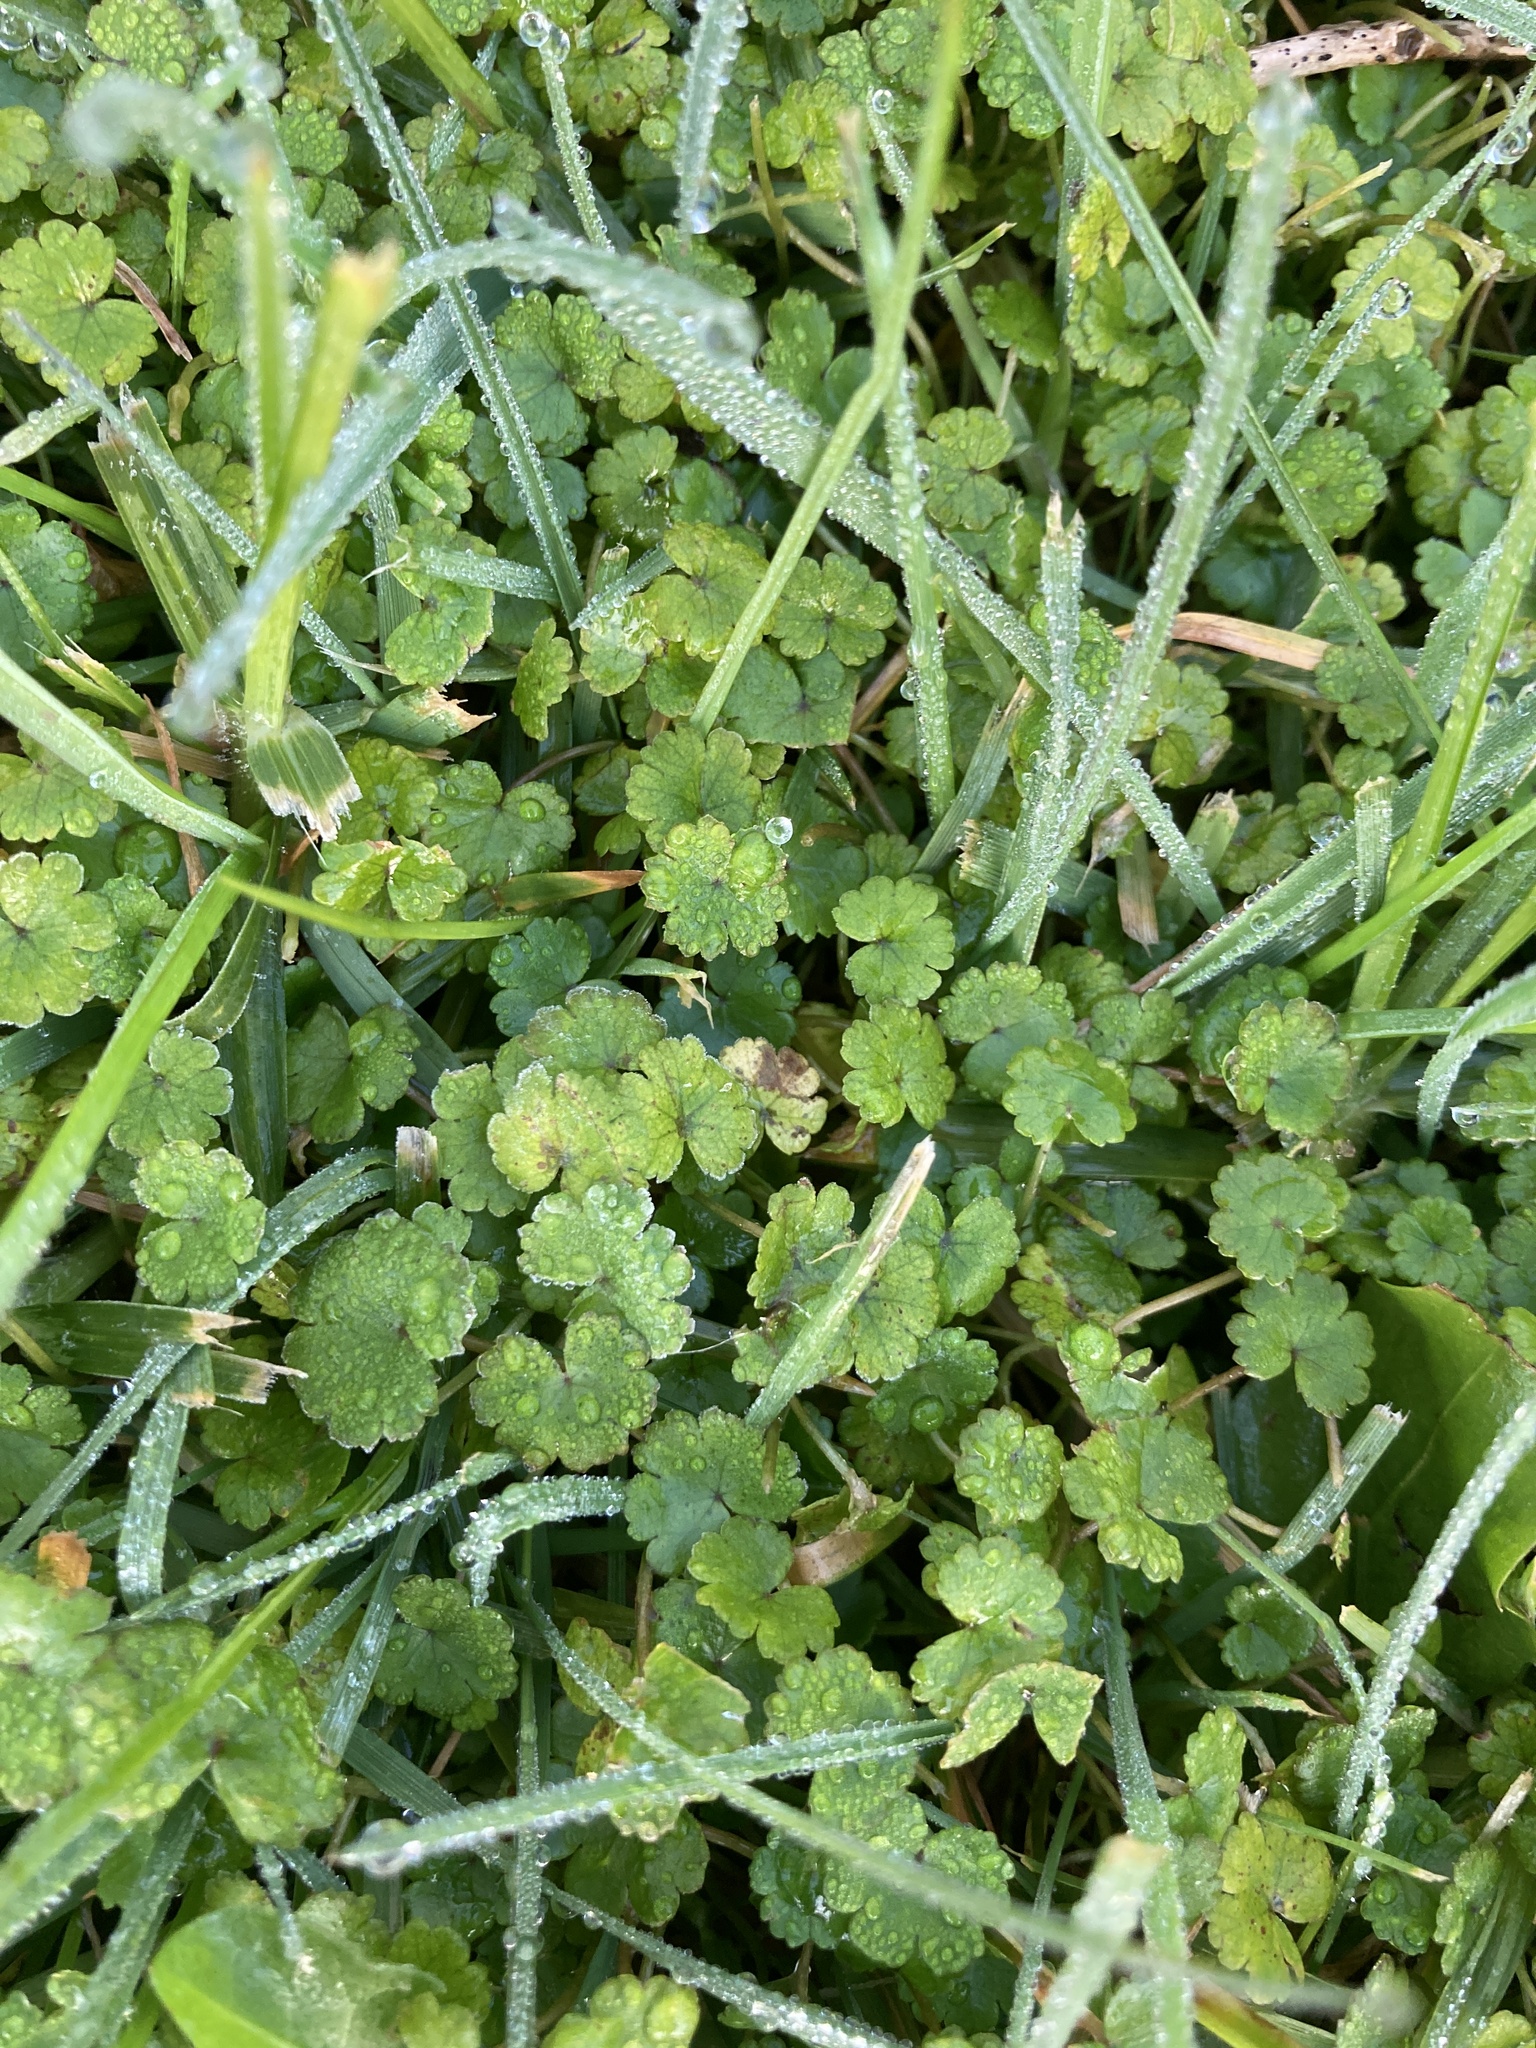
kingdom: Plantae
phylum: Tracheophyta
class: Magnoliopsida
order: Apiales
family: Araliaceae
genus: Hydrocotyle
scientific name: Hydrocotyle heteromeria
